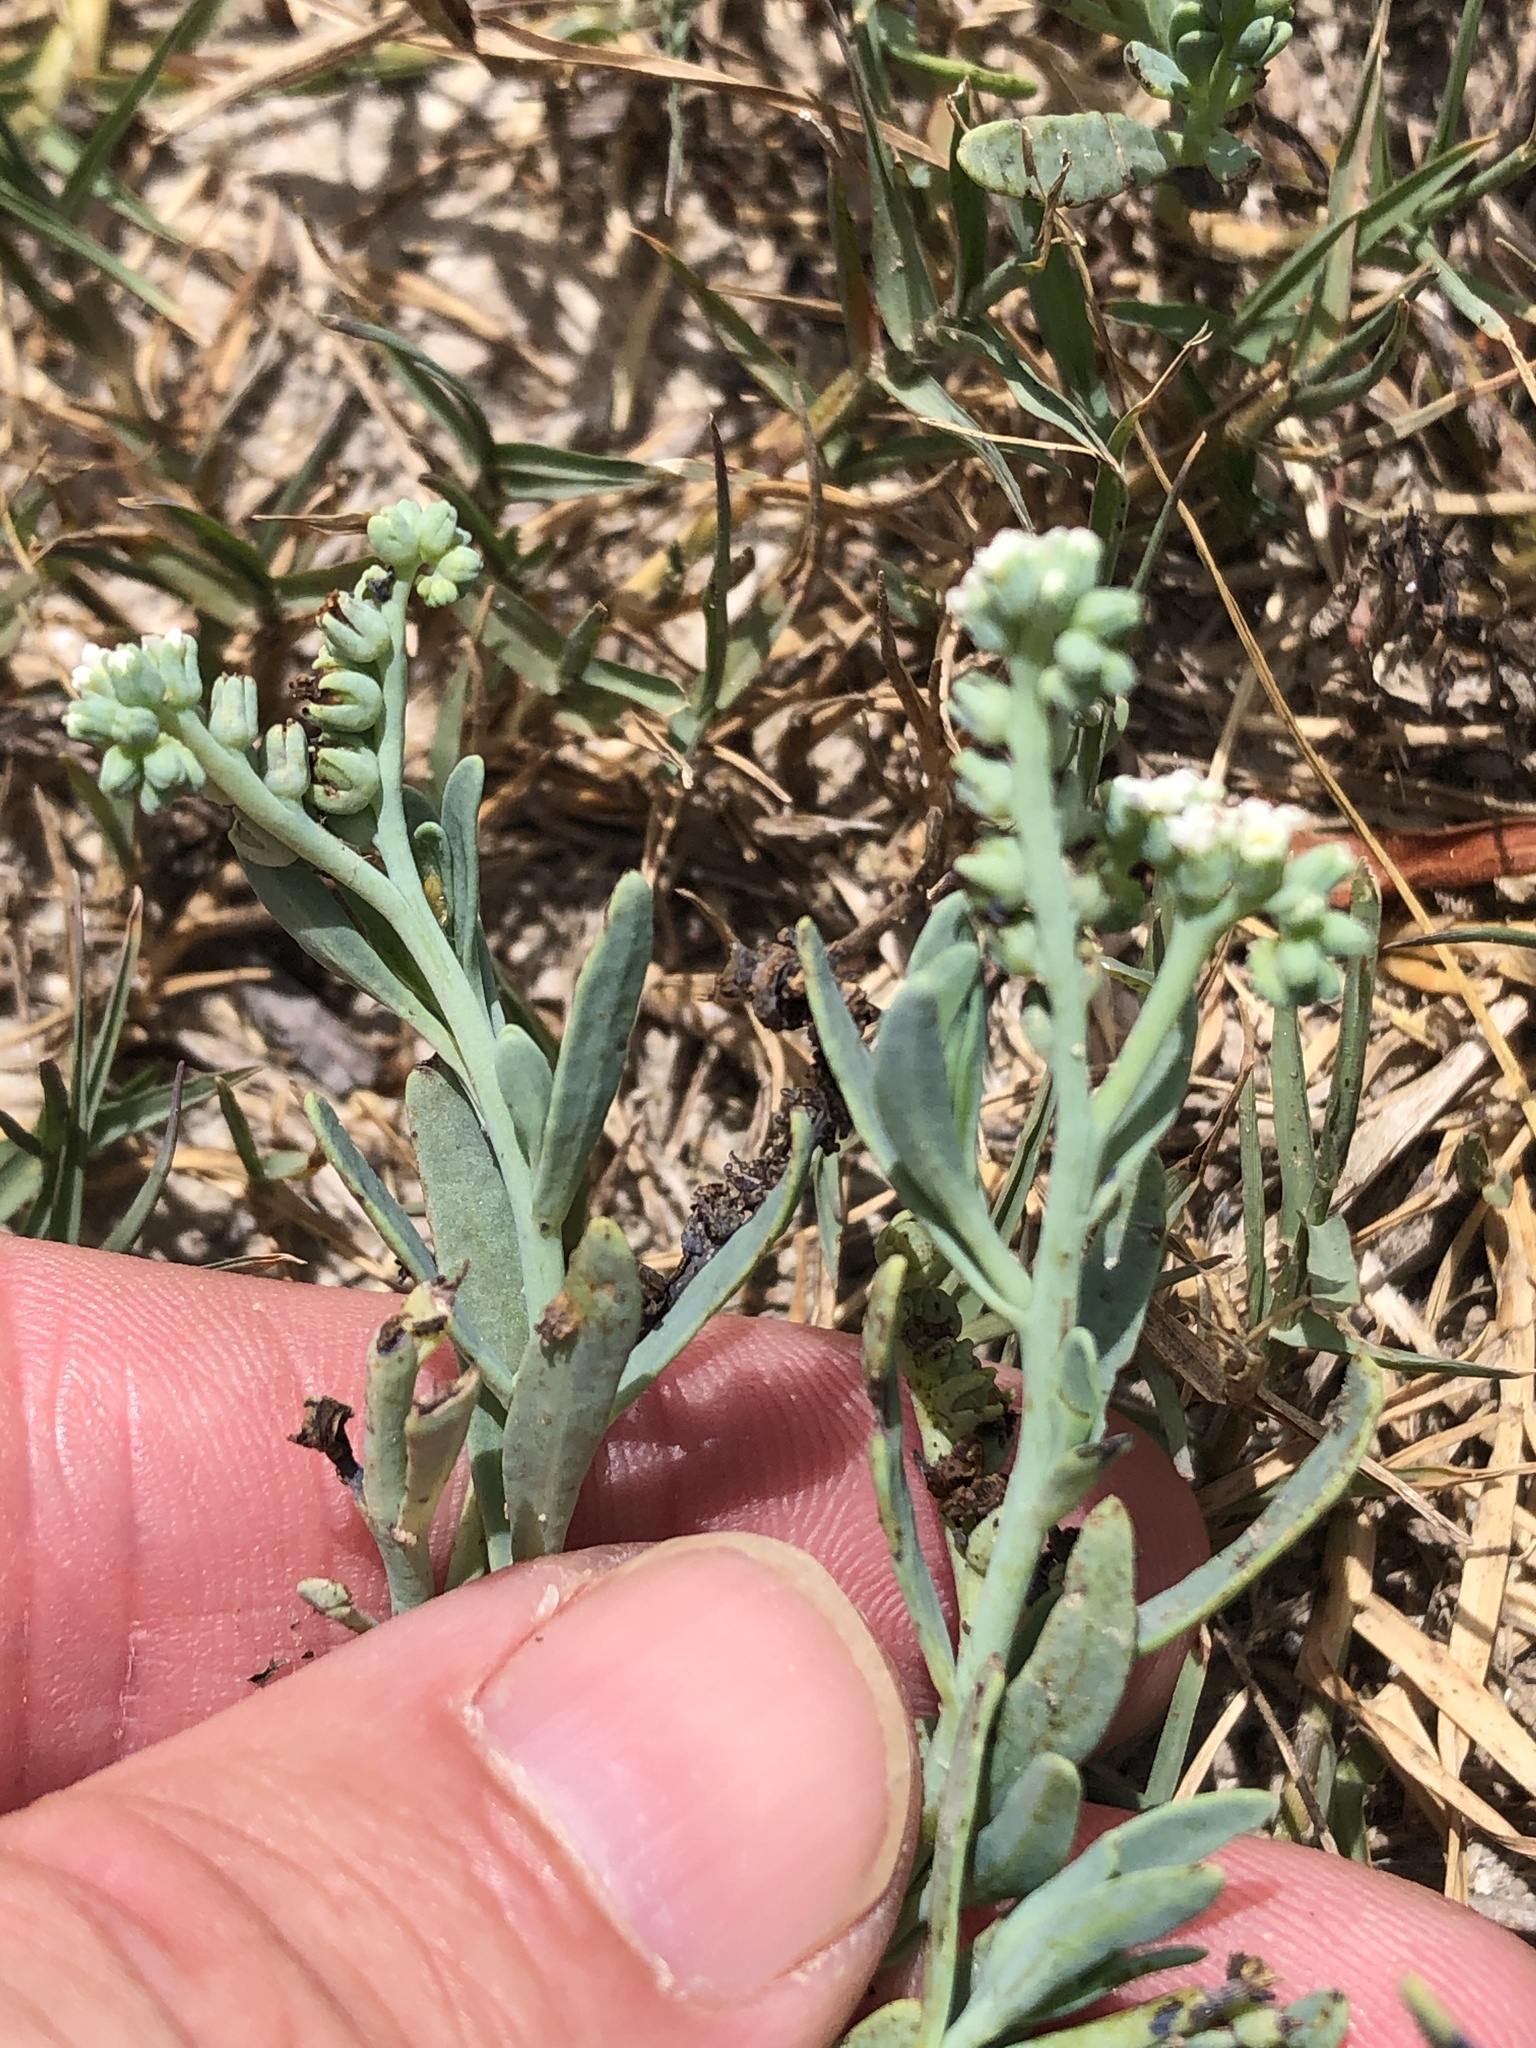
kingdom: Plantae
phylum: Tracheophyta
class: Magnoliopsida
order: Boraginales
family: Heliotropiaceae
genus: Heliotropium
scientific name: Heliotropium curassavicum
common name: Seaside heliotrope
